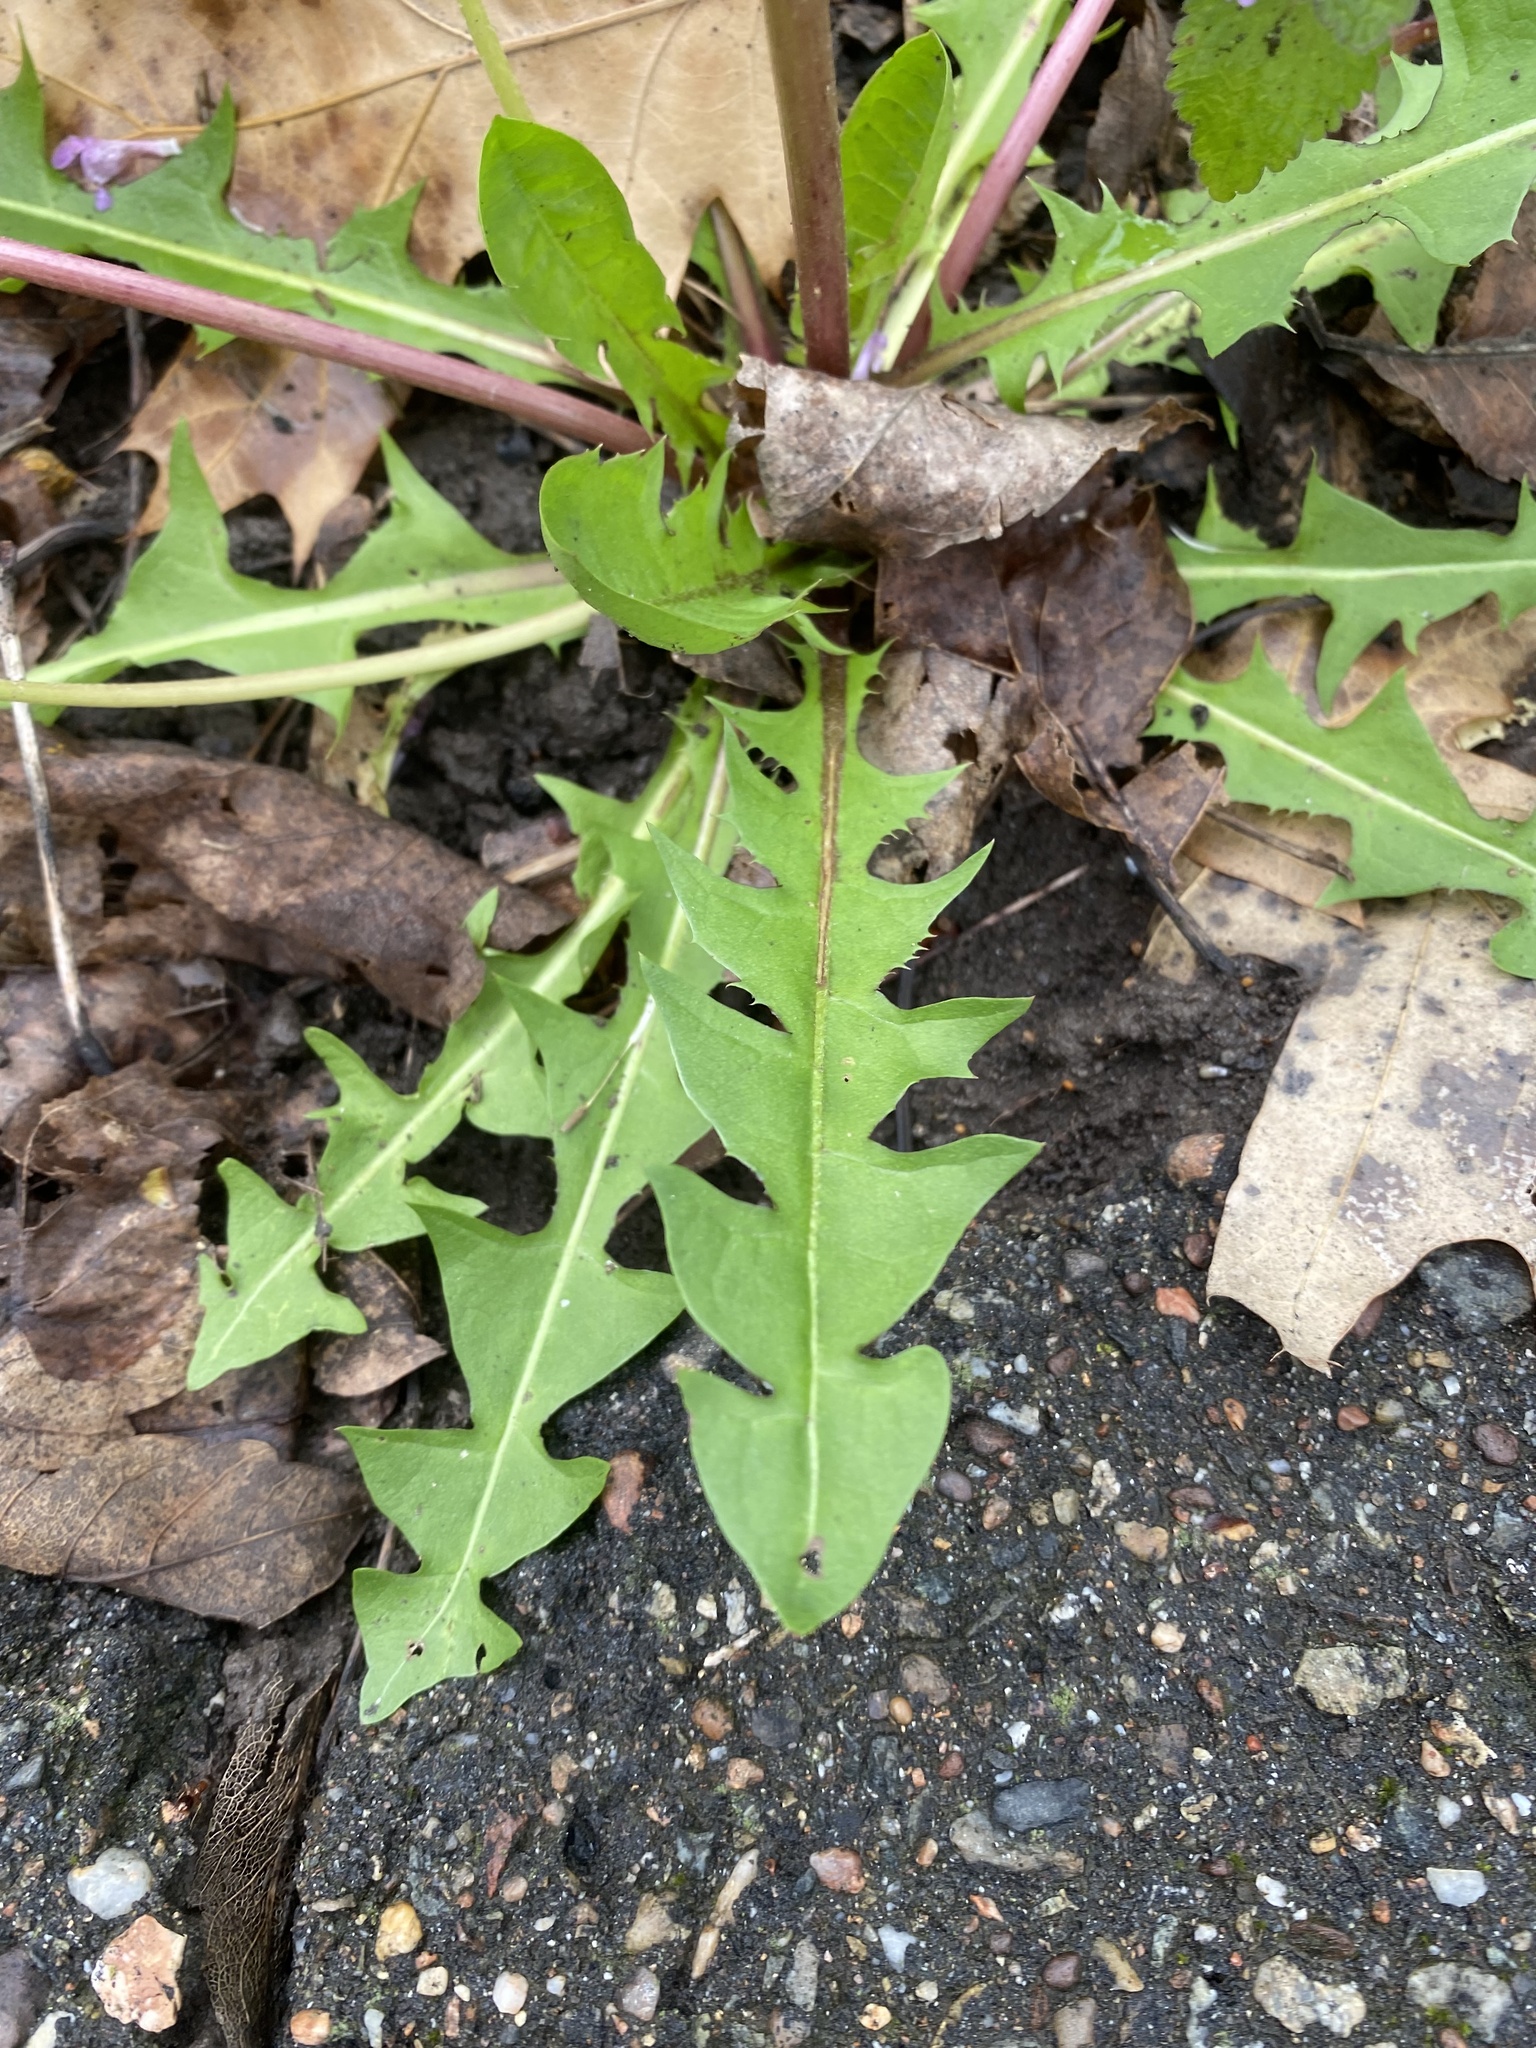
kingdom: Plantae
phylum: Tracheophyta
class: Magnoliopsida
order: Asterales
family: Asteraceae
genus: Taraxacum
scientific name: Taraxacum officinale
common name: Common dandelion
